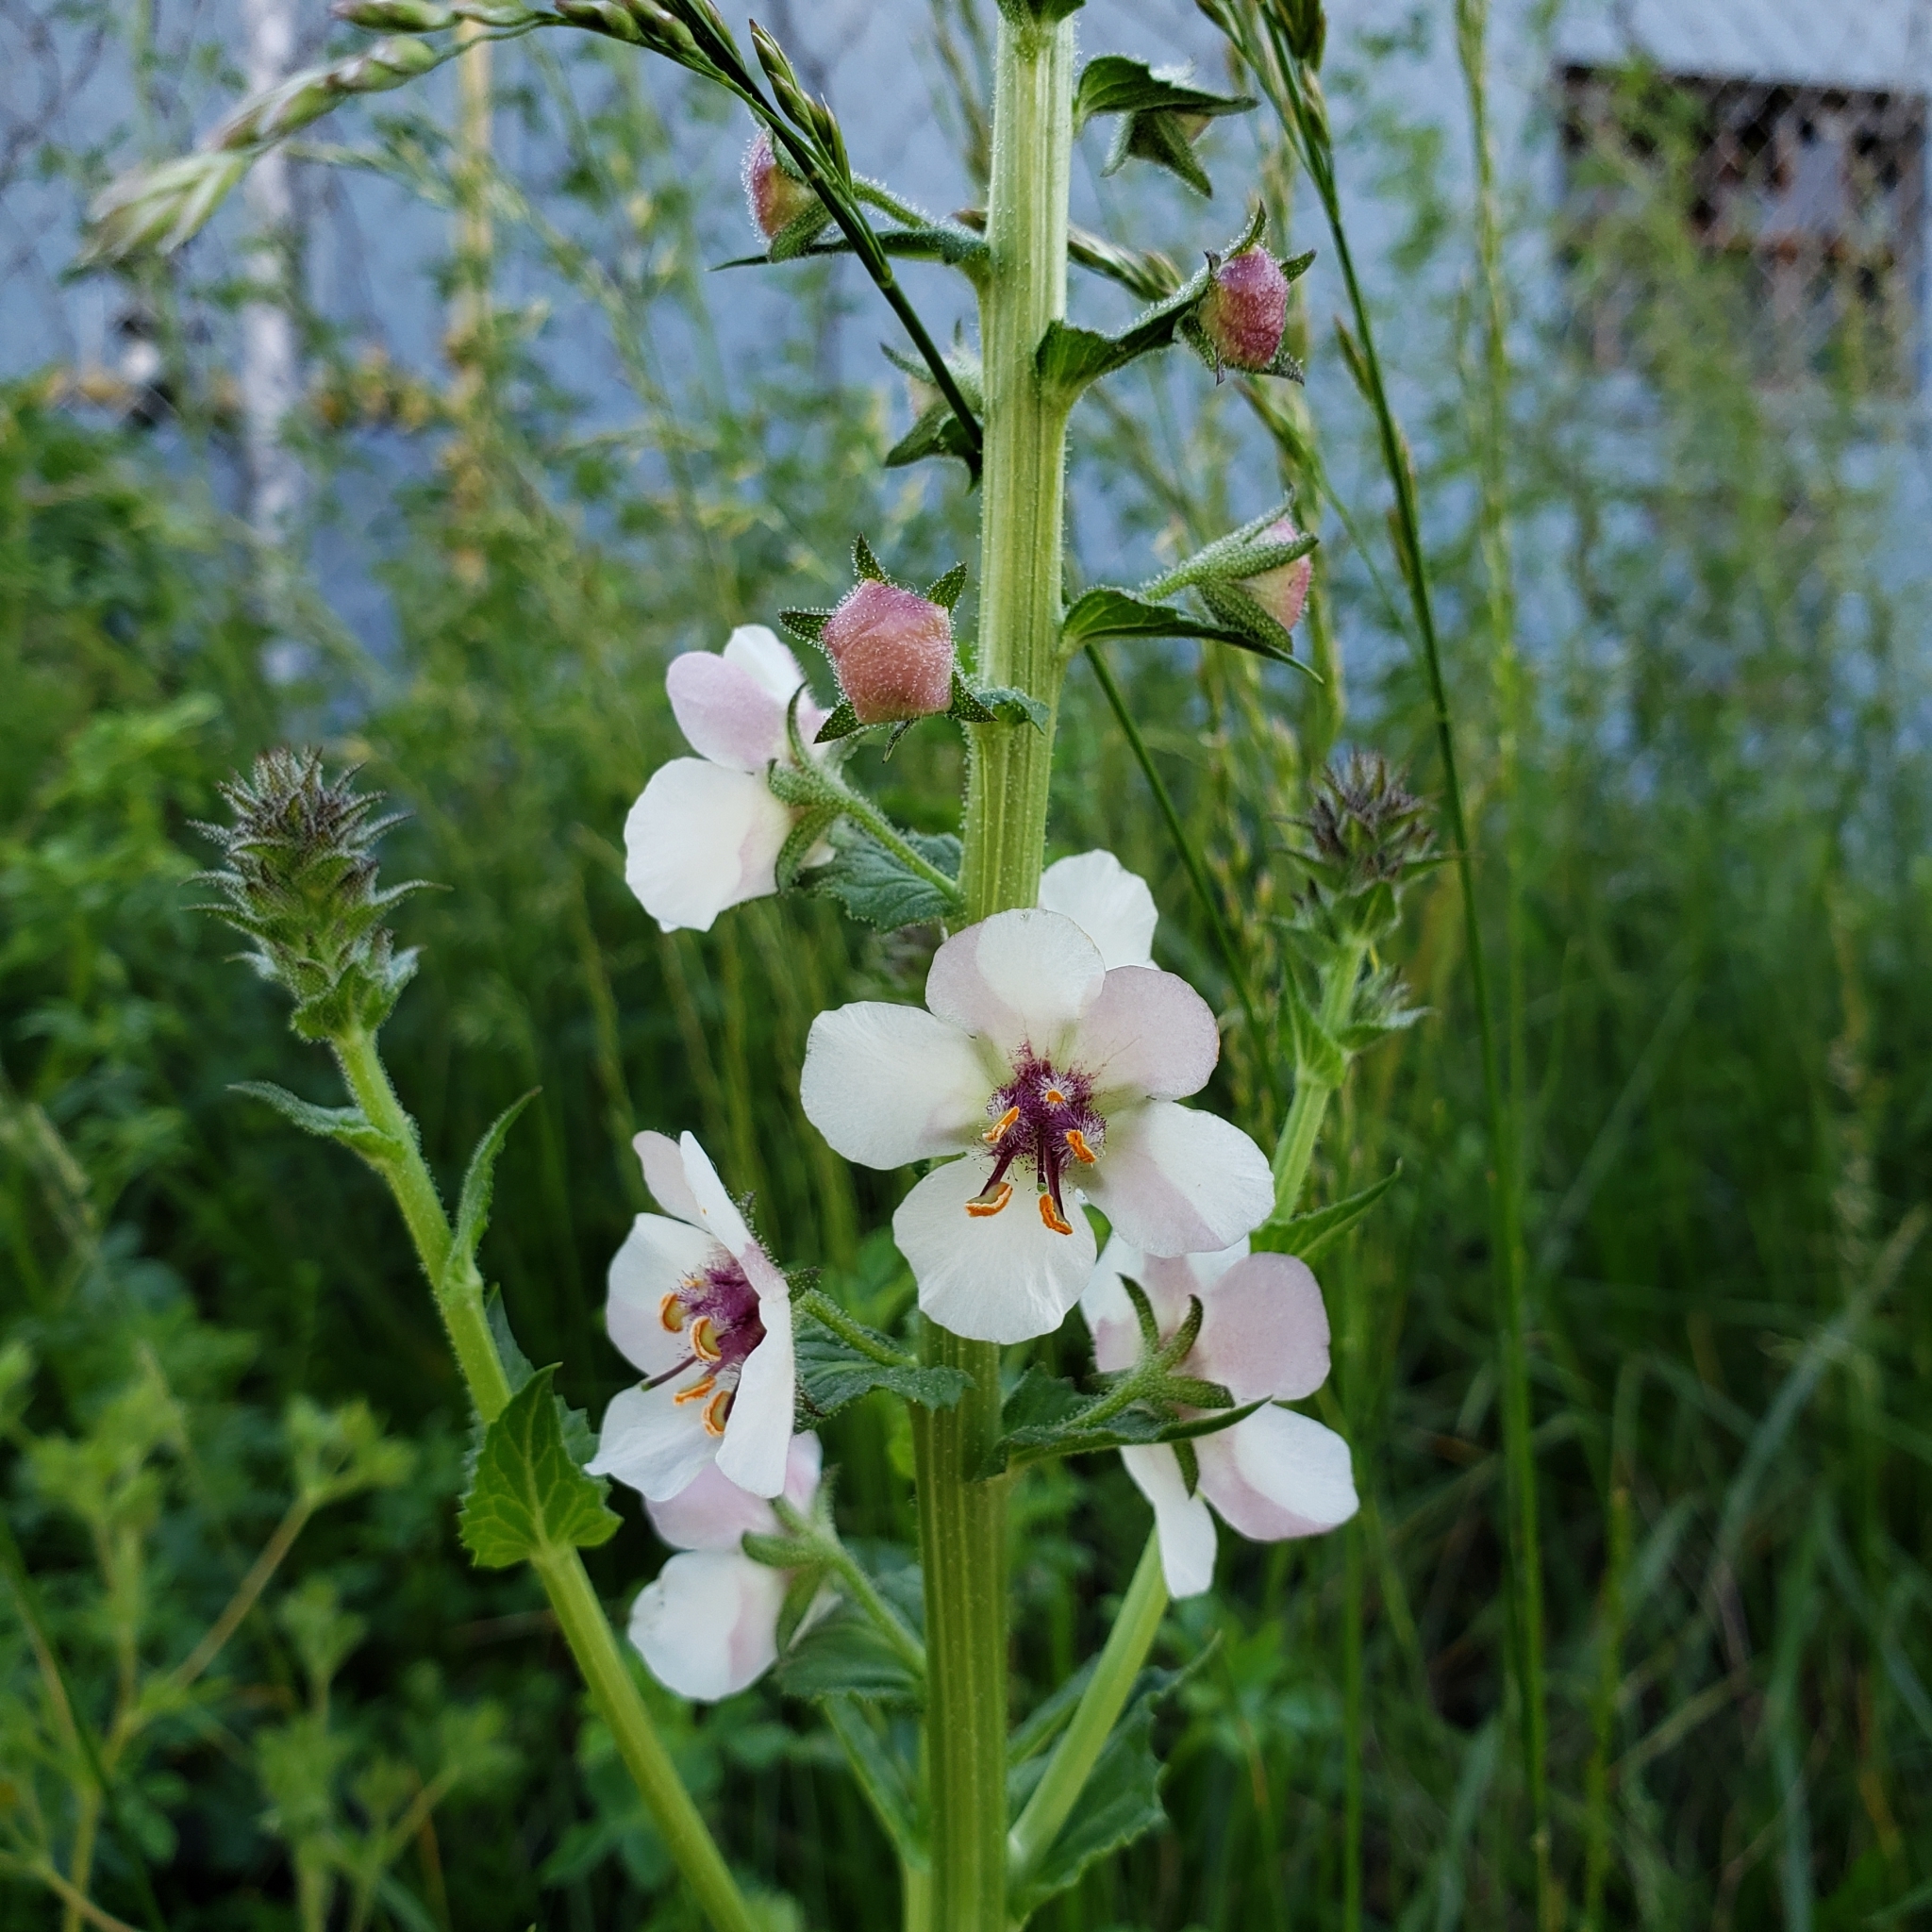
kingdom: Plantae
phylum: Tracheophyta
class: Magnoliopsida
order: Lamiales
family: Scrophulariaceae
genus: Verbascum
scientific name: Verbascum blattaria
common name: Moth mullein
